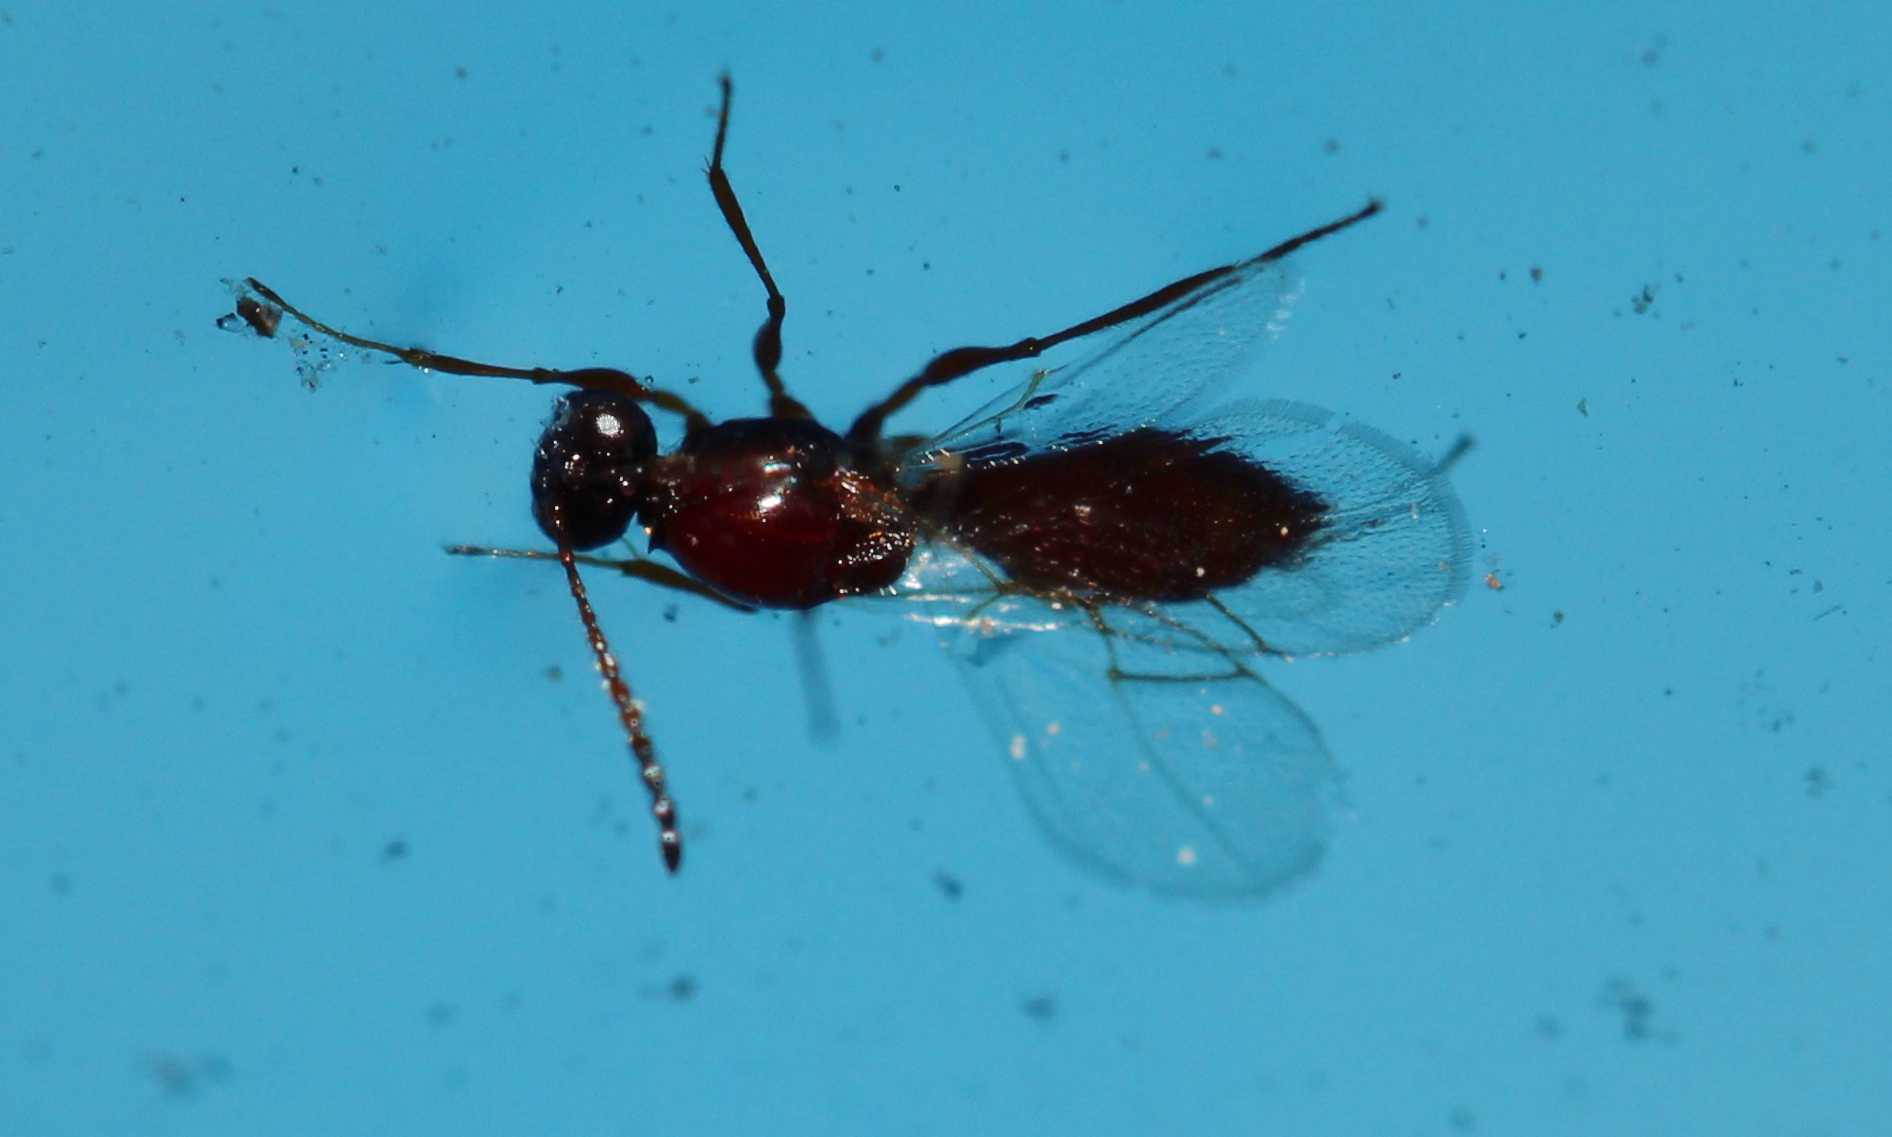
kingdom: Animalia
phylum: Arthropoda
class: Insecta
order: Hymenoptera
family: Eucoilidae
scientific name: Eucoilidae
